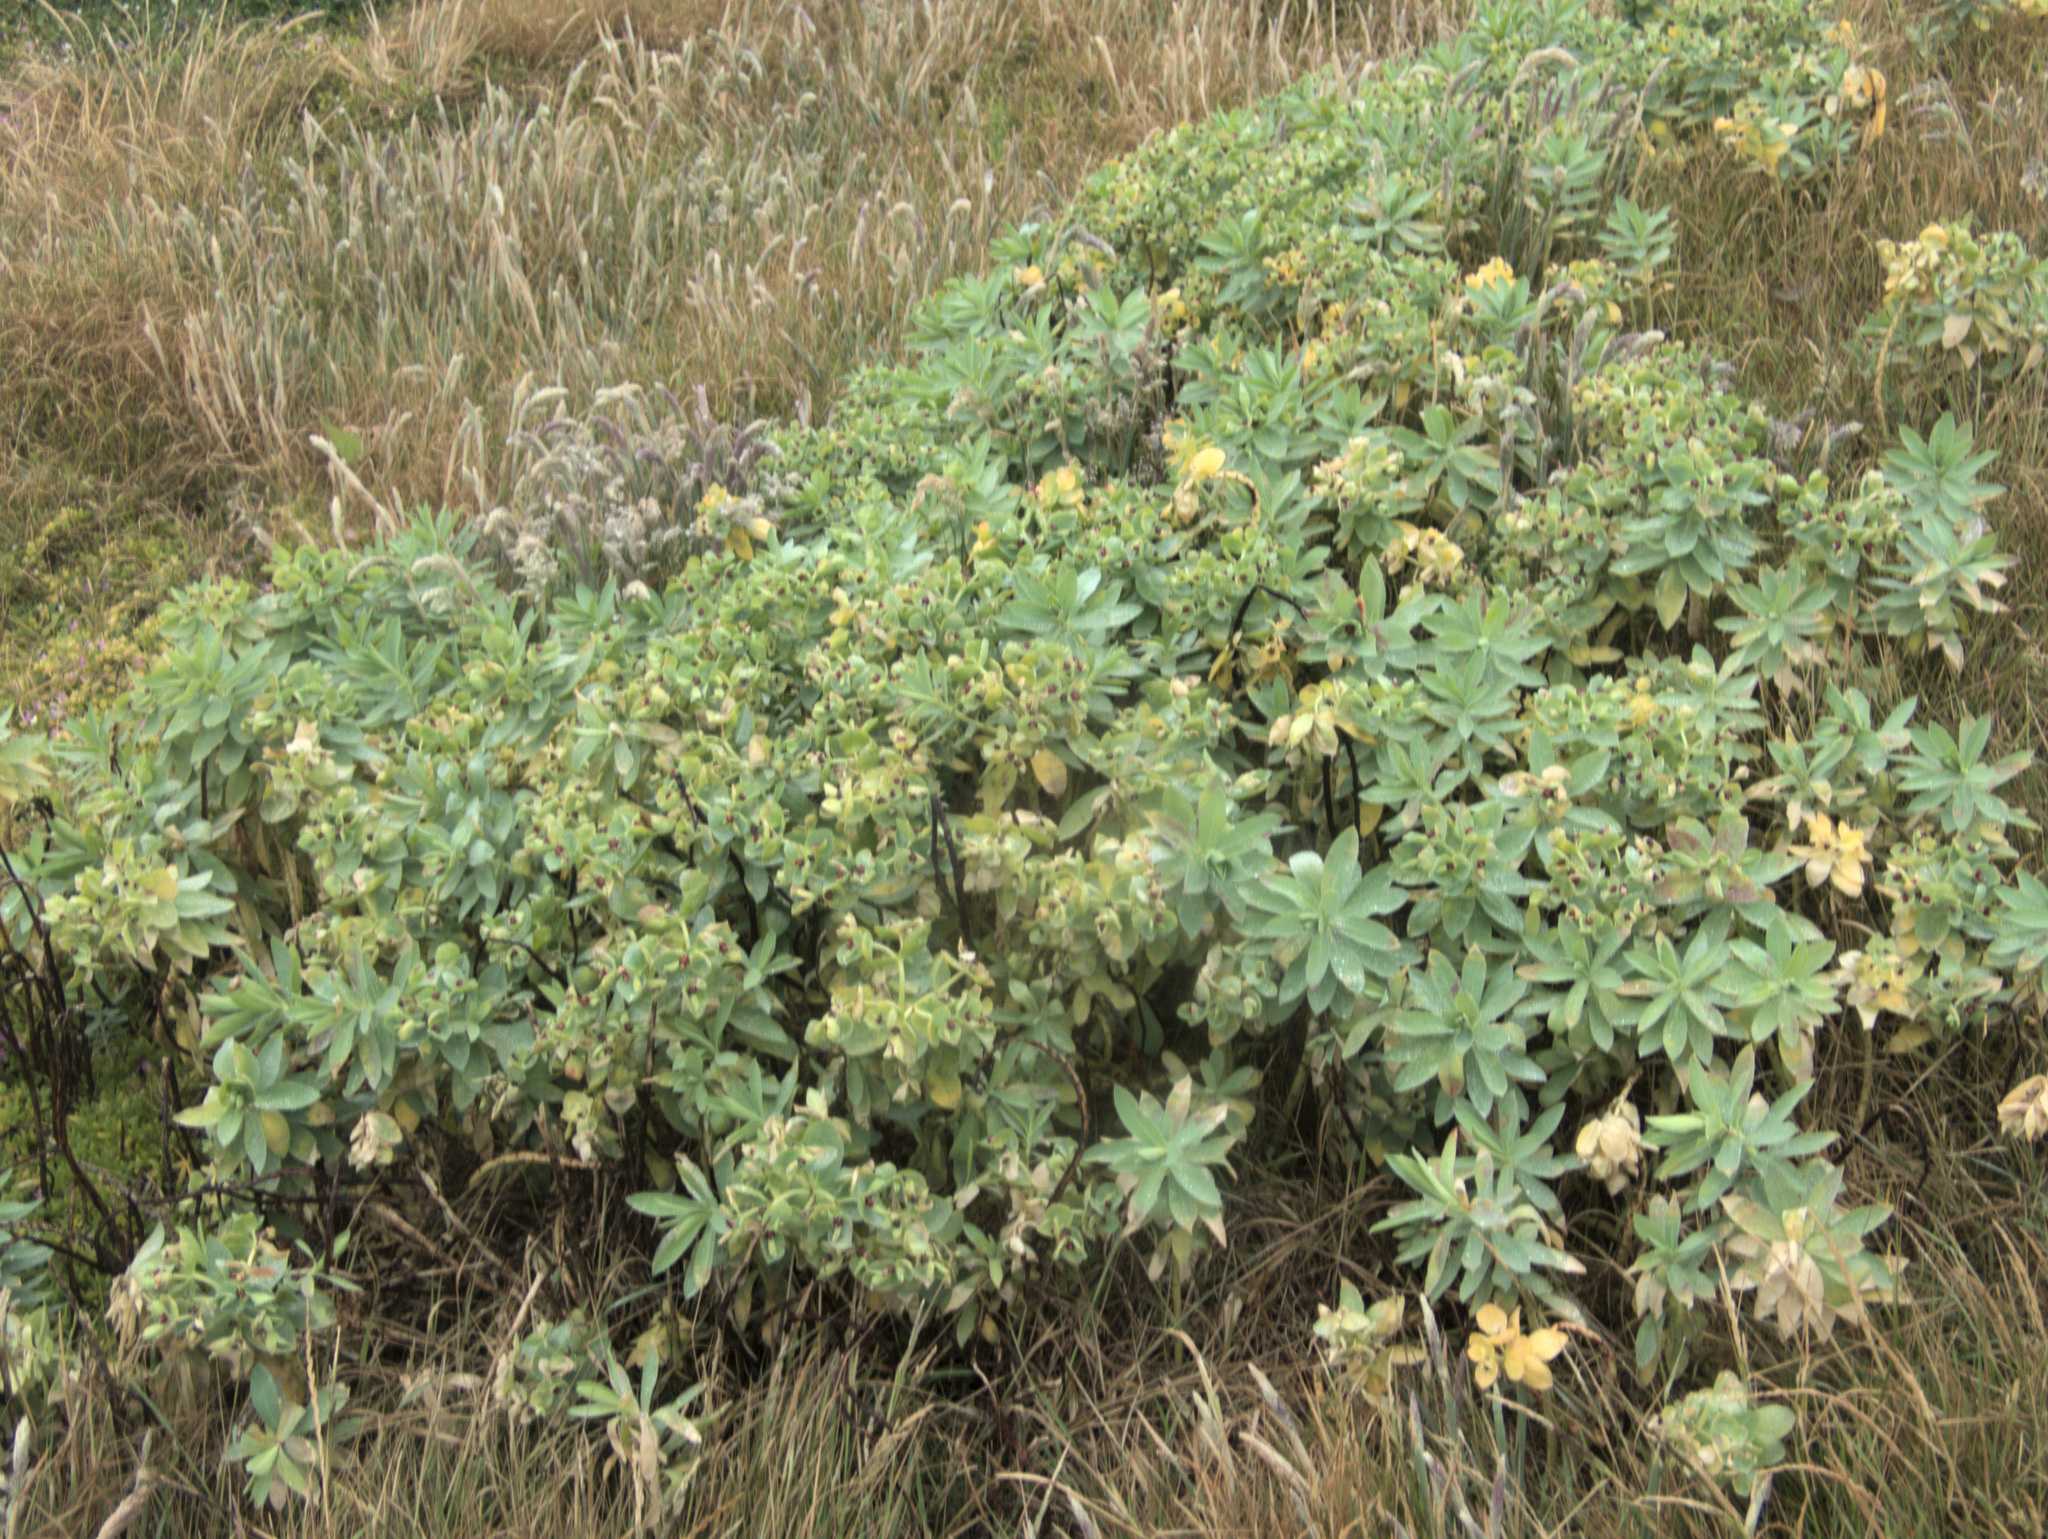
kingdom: Plantae
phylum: Tracheophyta
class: Magnoliopsida
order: Malpighiales
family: Euphorbiaceae
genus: Euphorbia
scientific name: Euphorbia glauca
